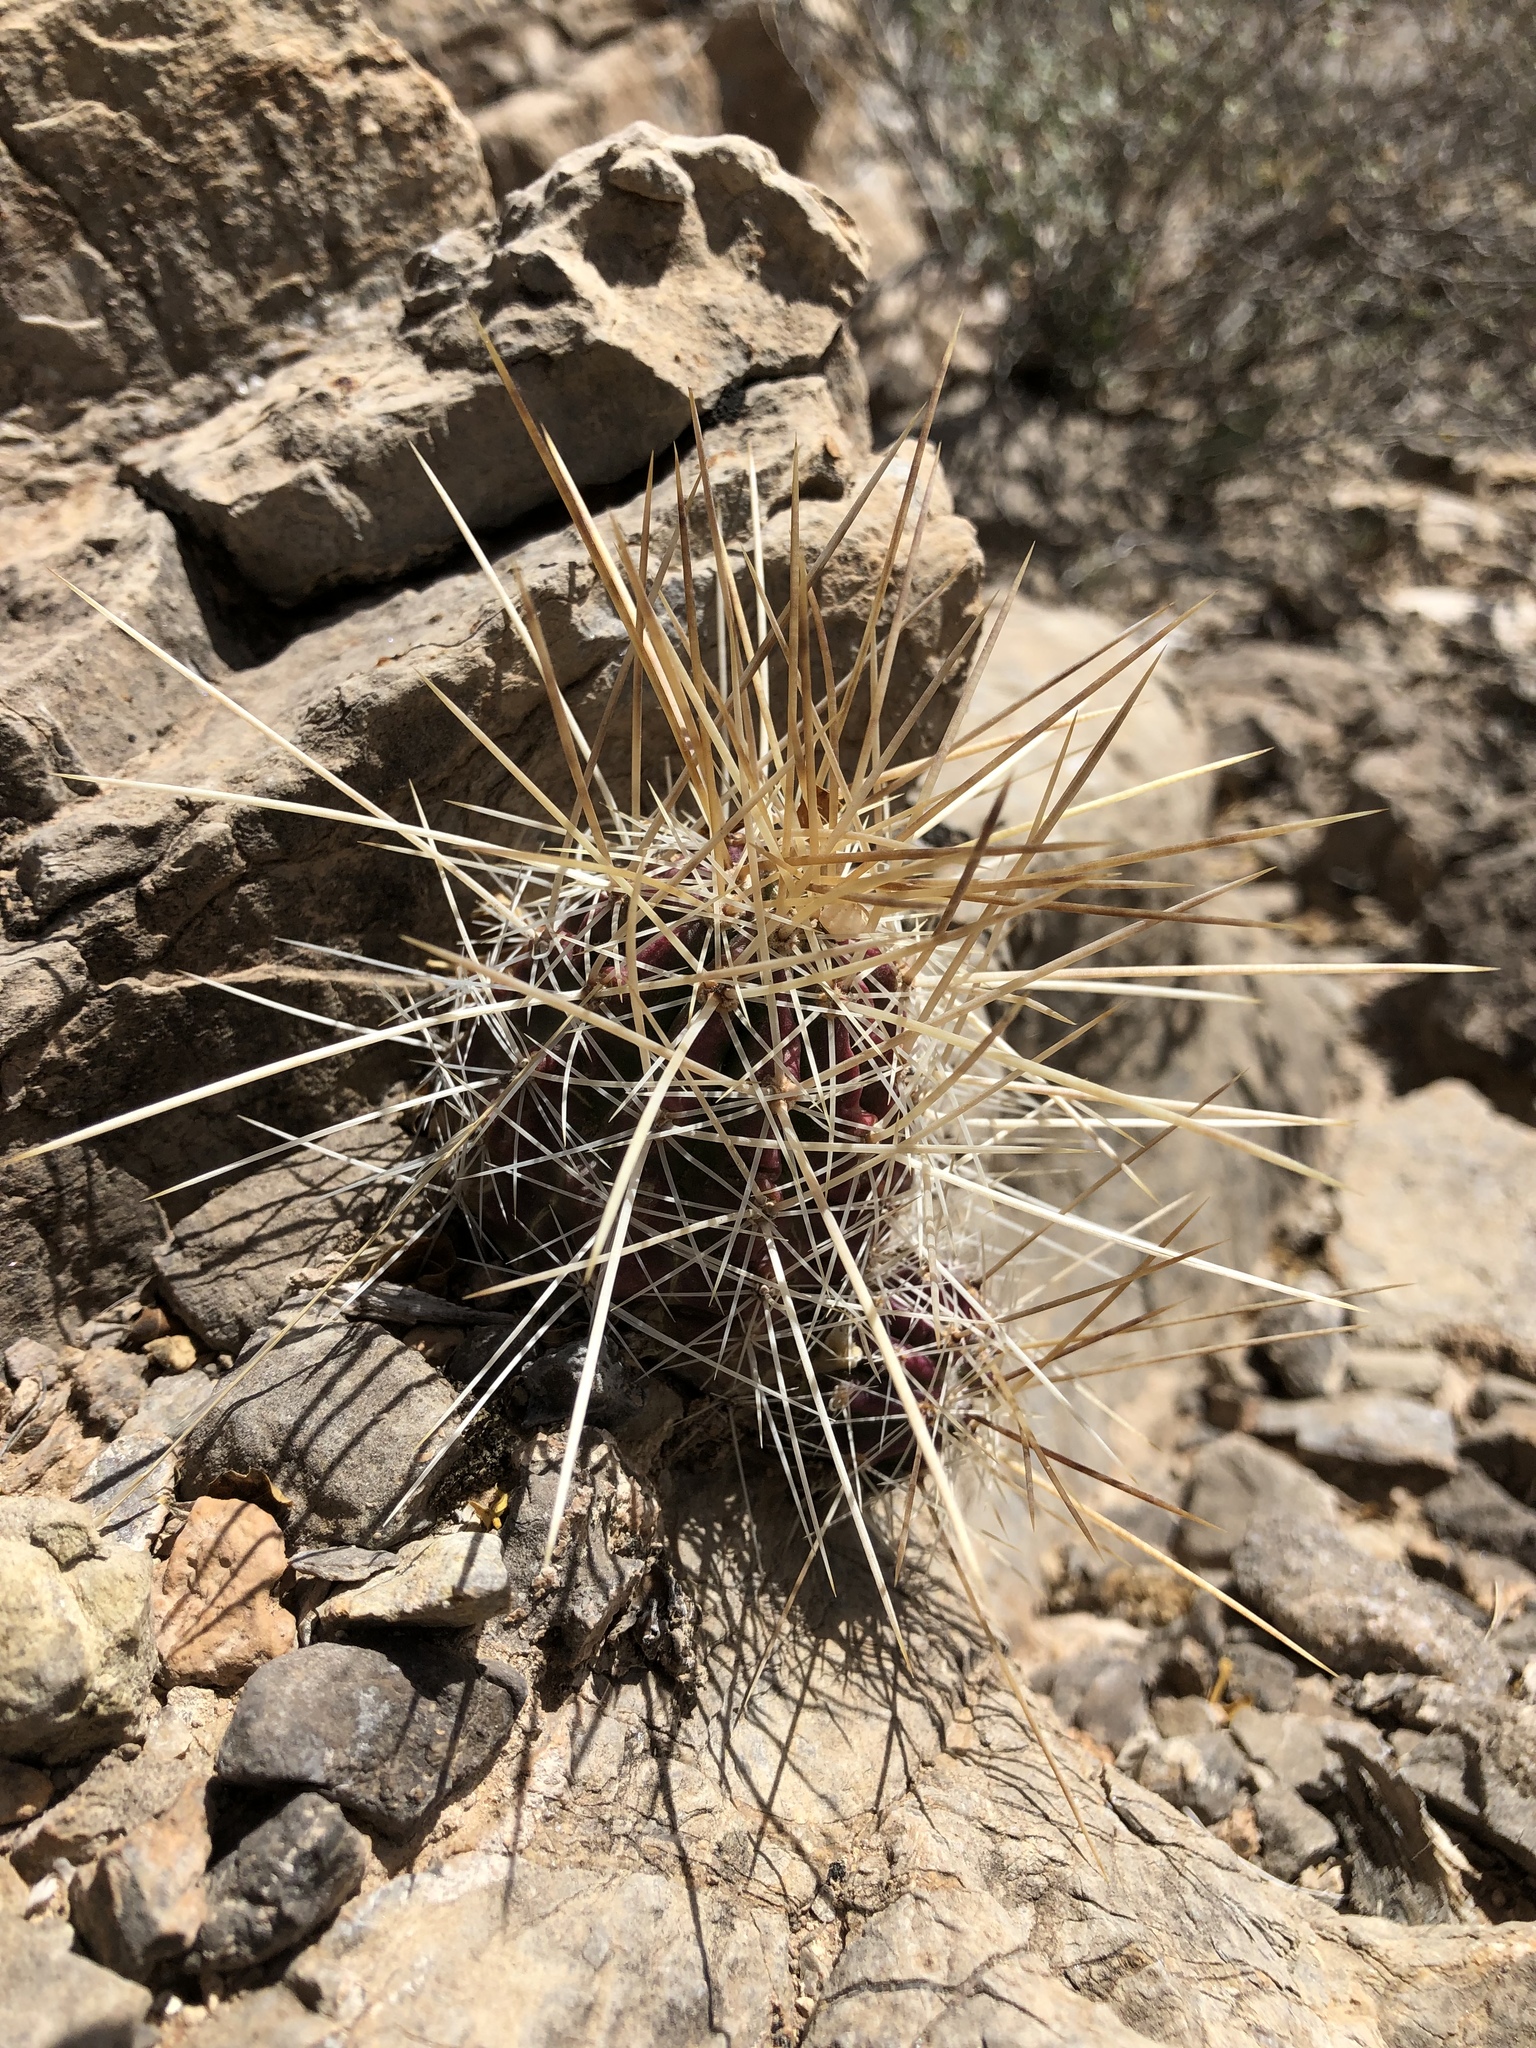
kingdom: Plantae
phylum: Tracheophyta
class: Magnoliopsida
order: Caryophyllales
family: Cactaceae
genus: Echinocereus
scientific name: Echinocereus stramineus
